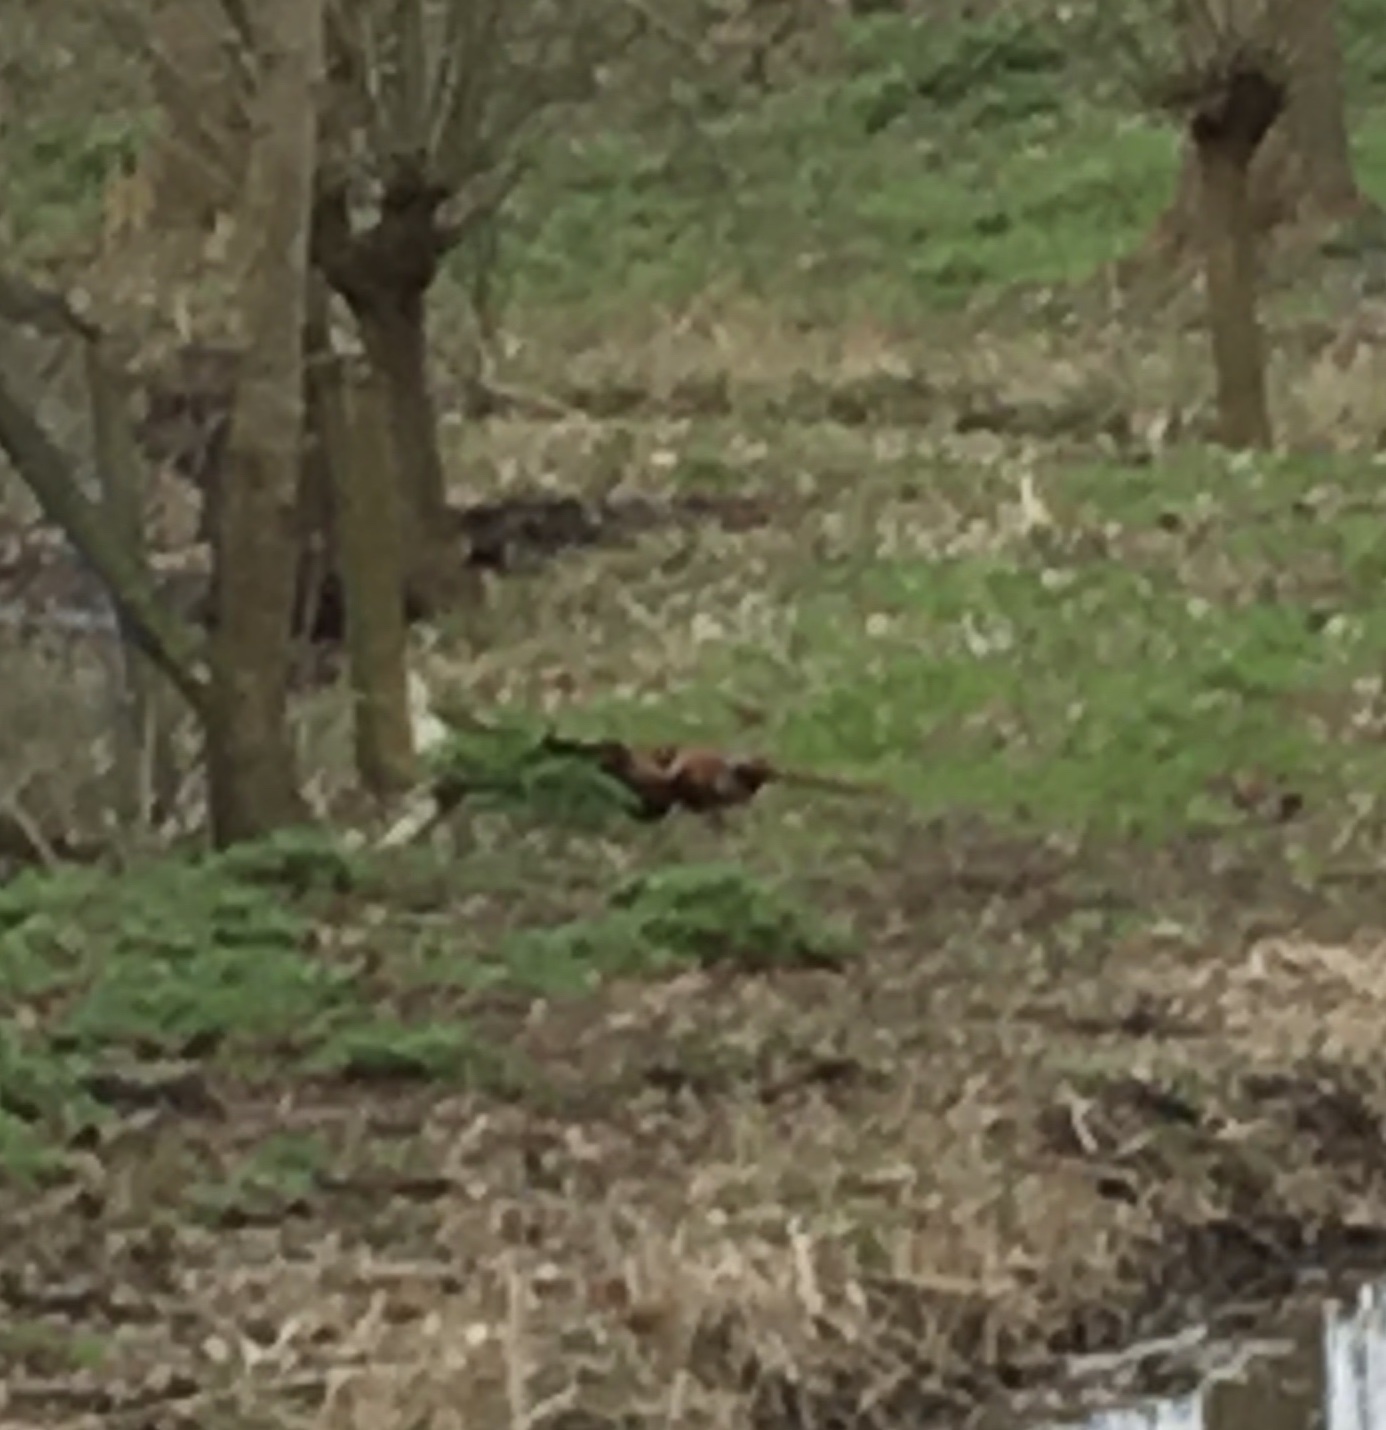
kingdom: Animalia
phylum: Chordata
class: Aves
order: Galliformes
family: Phasianidae
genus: Phasianus
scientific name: Phasianus colchicus
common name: Common pheasant
